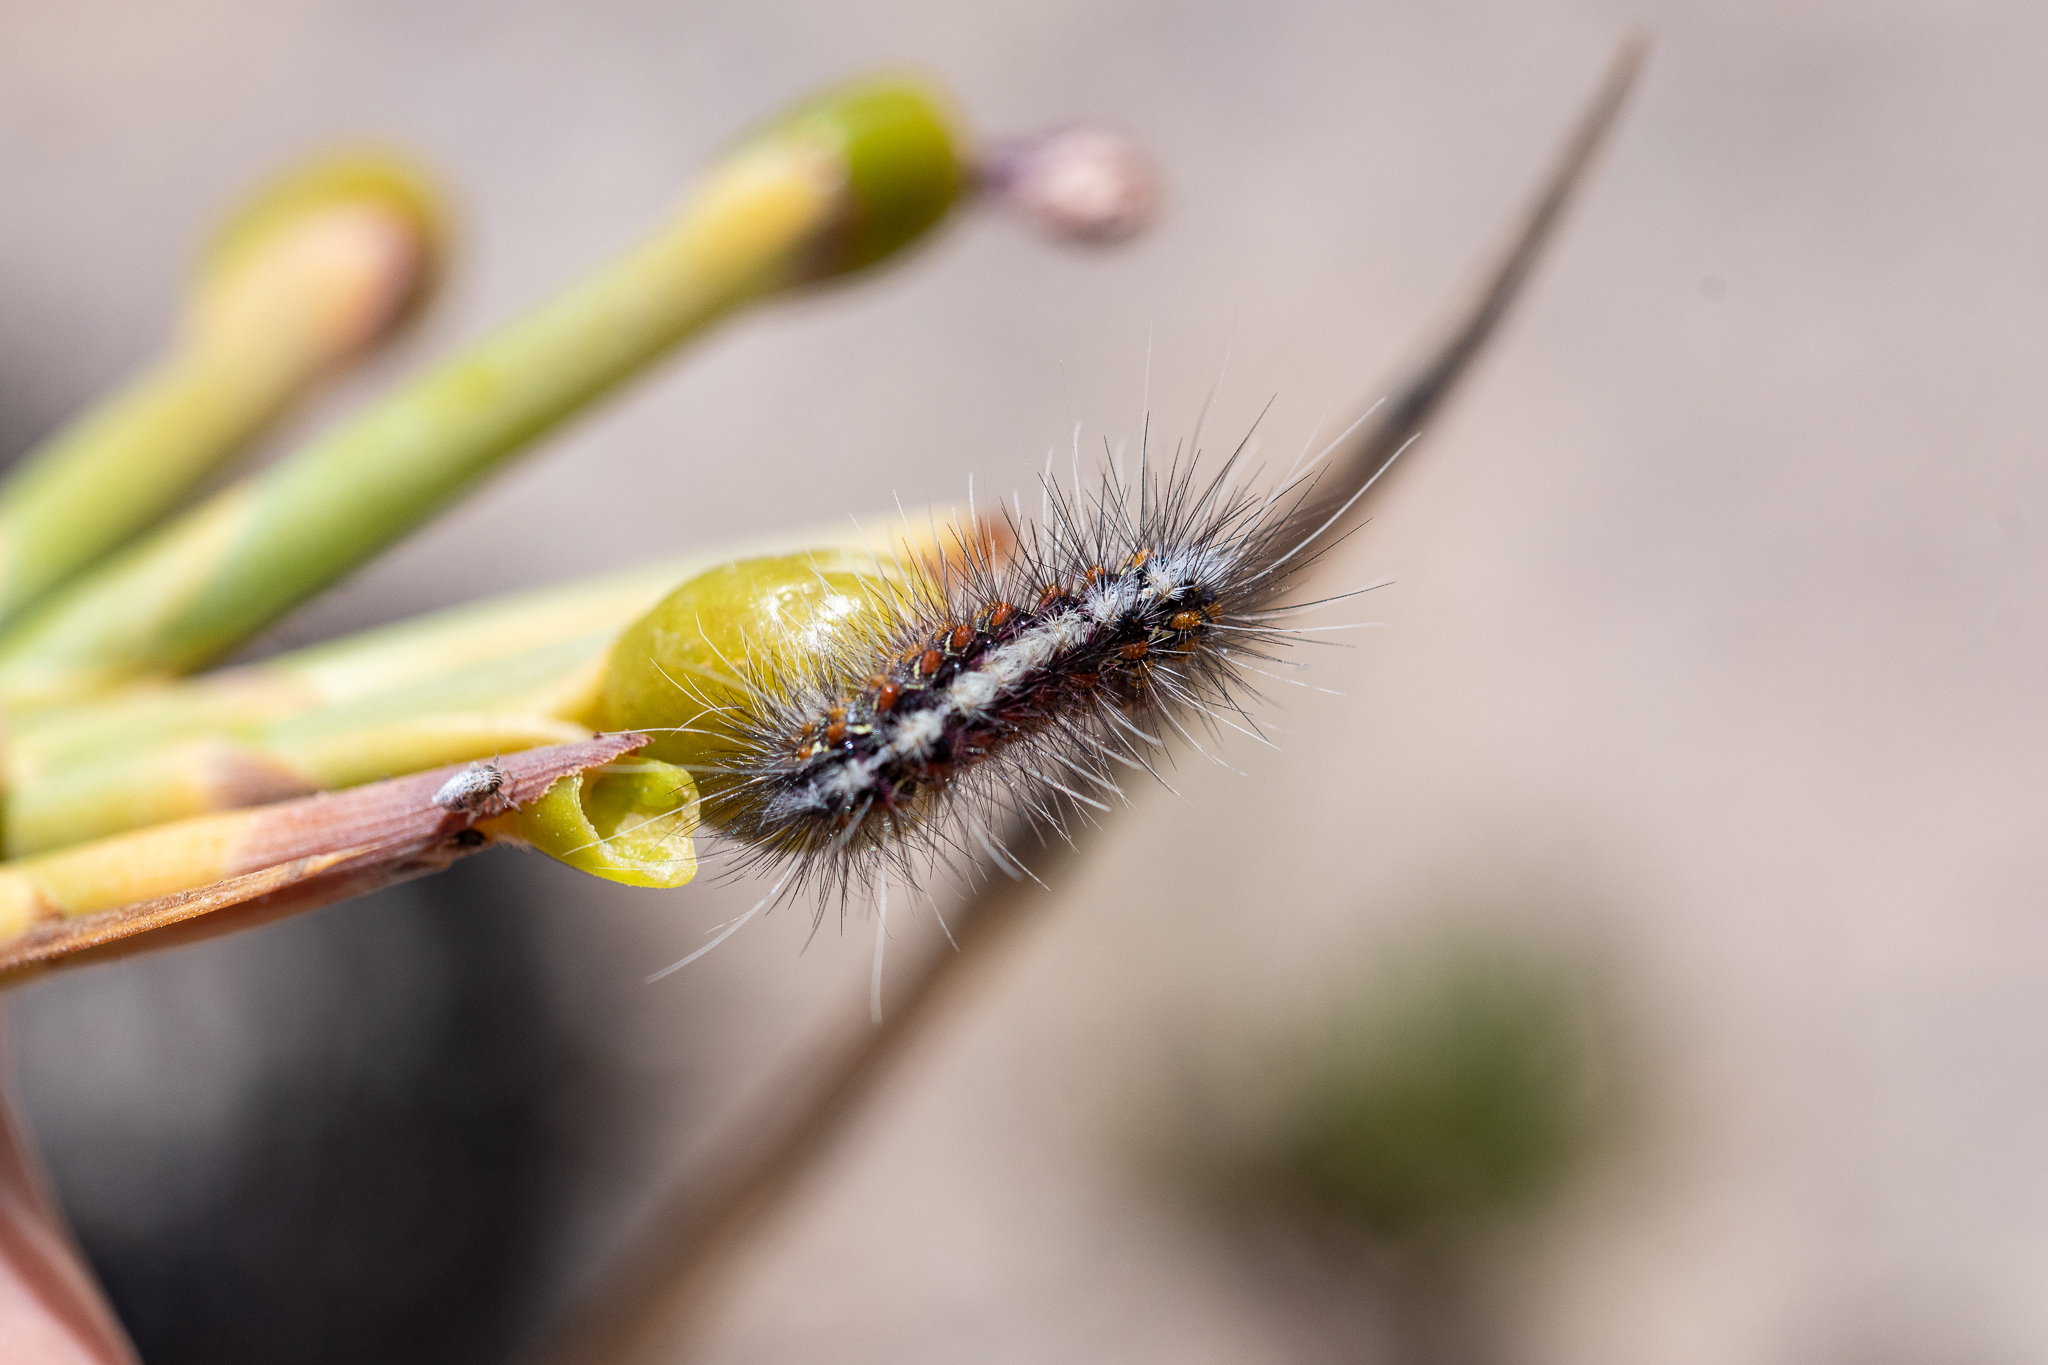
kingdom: Animalia
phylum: Arthropoda
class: Insecta
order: Lepidoptera
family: Erebidae
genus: Paralacydes
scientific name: Paralacydes vocula
